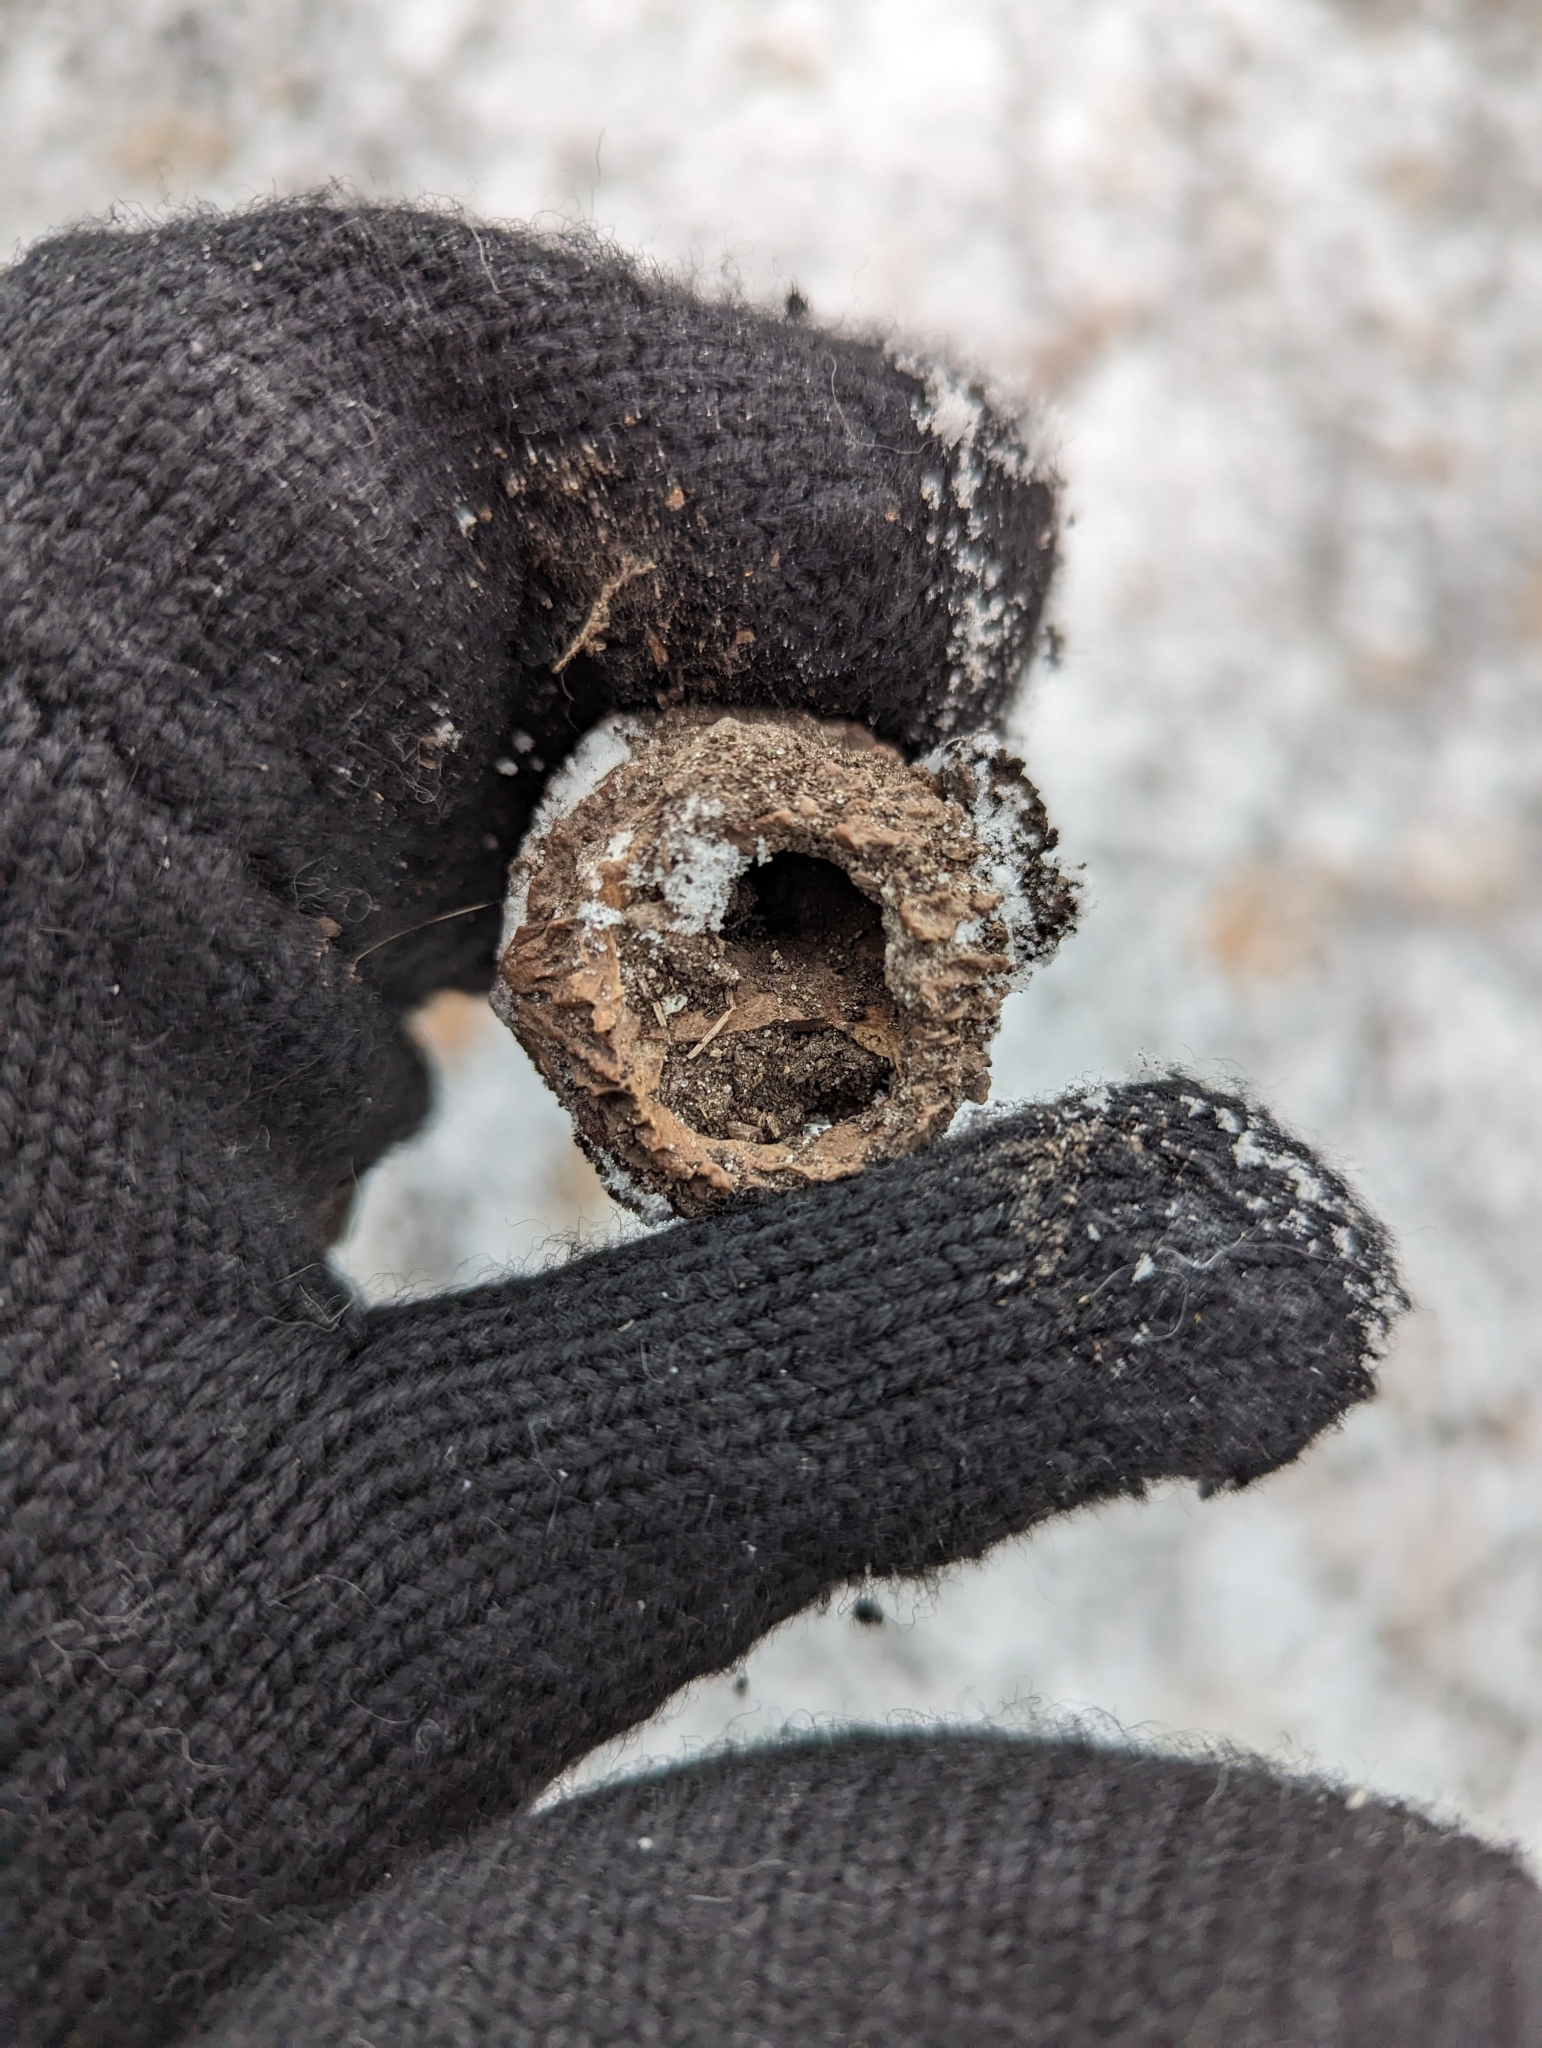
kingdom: Plantae
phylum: Tracheophyta
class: Magnoliopsida
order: Fagales
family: Juglandaceae
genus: Juglans
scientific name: Juglans nigra
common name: Black walnut
